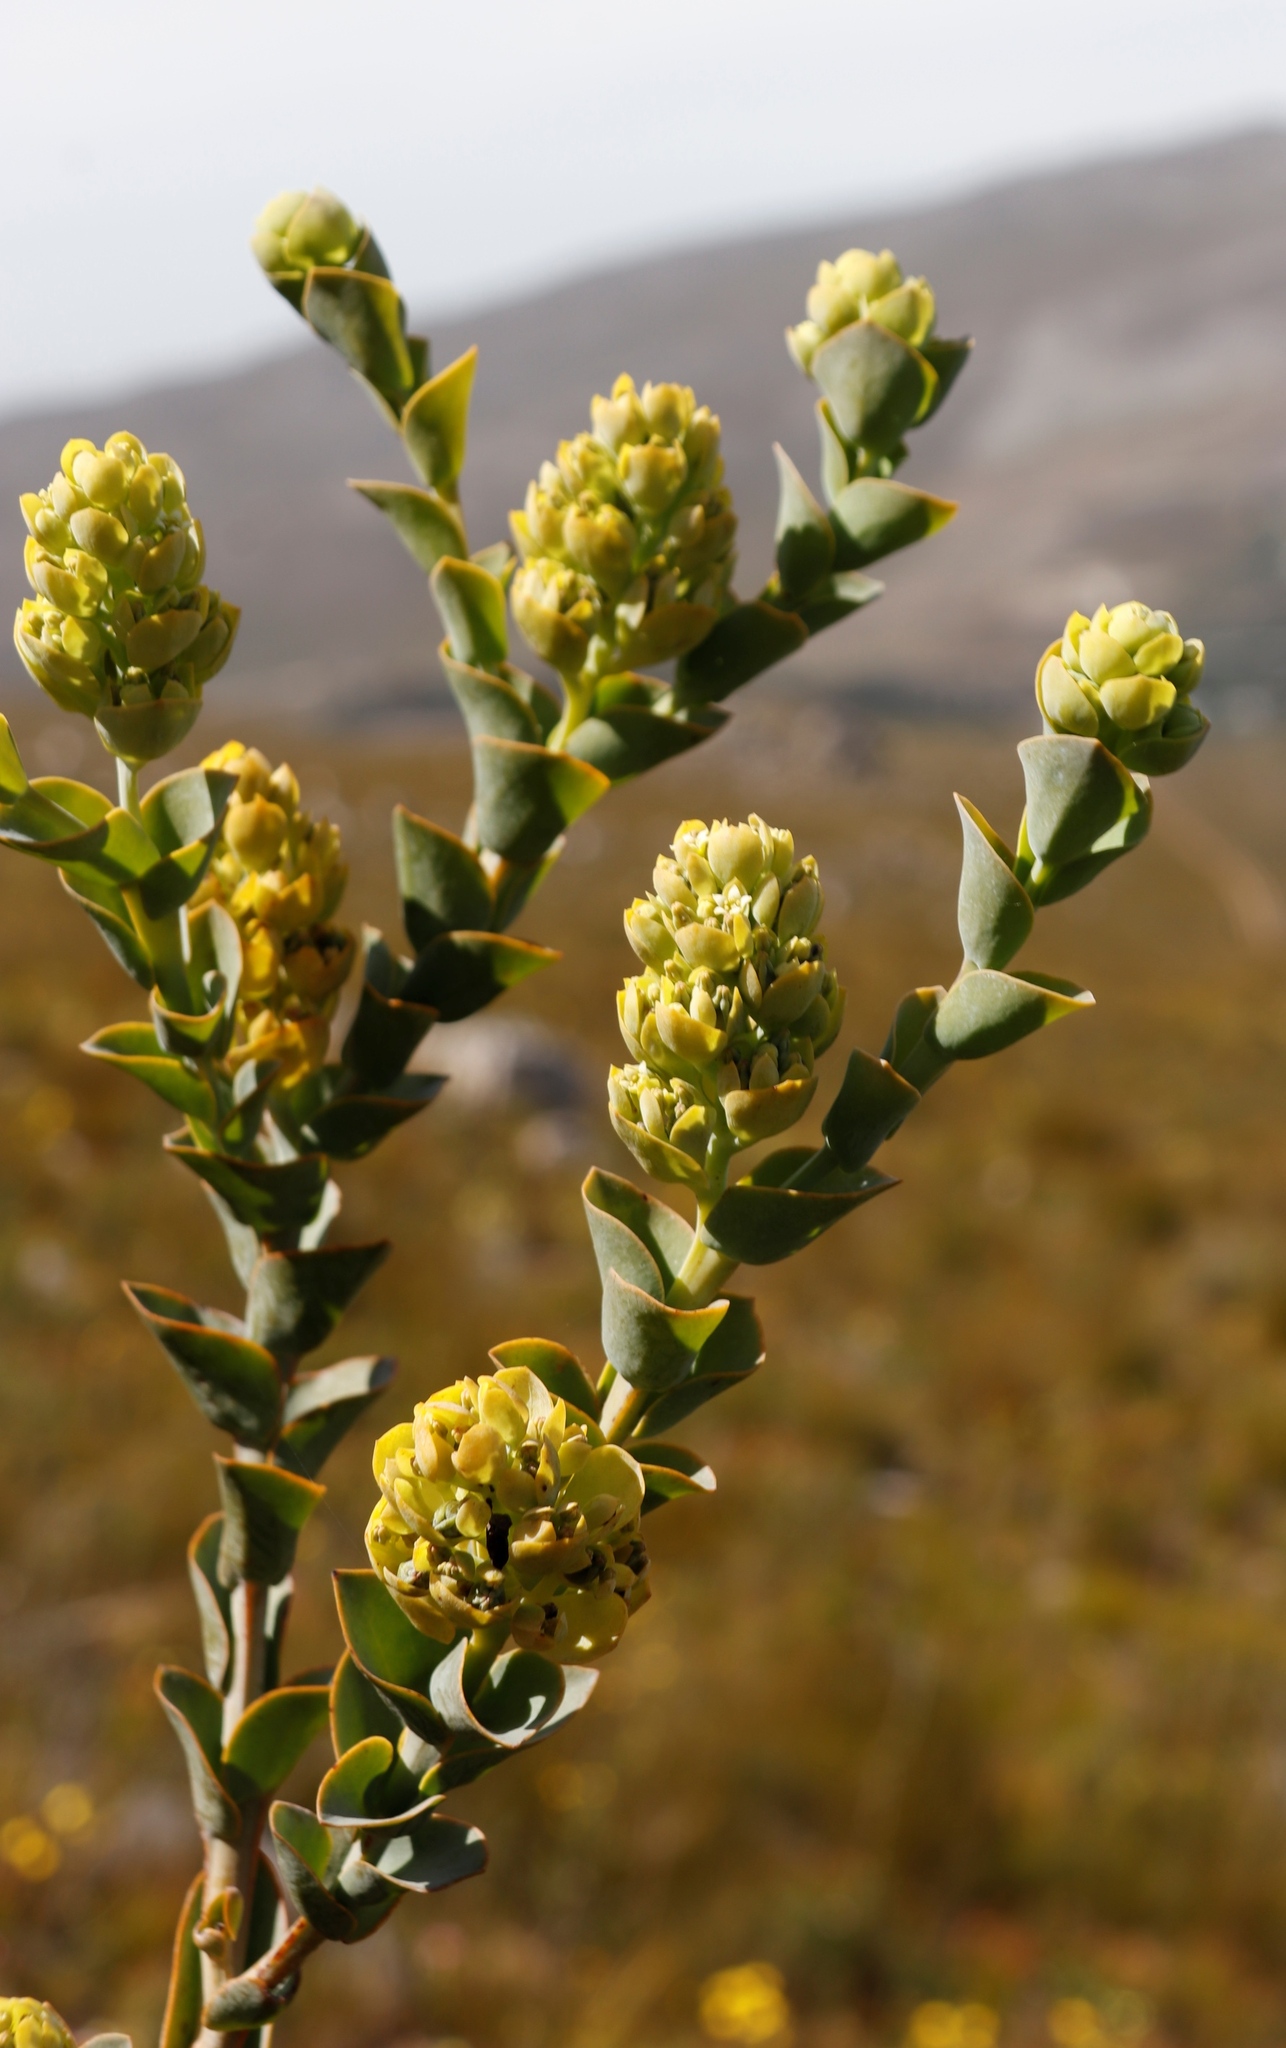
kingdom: Plantae
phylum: Tracheophyta
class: Magnoliopsida
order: Santalales
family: Thesiaceae
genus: Thesium
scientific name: Thesium euphorbioides
